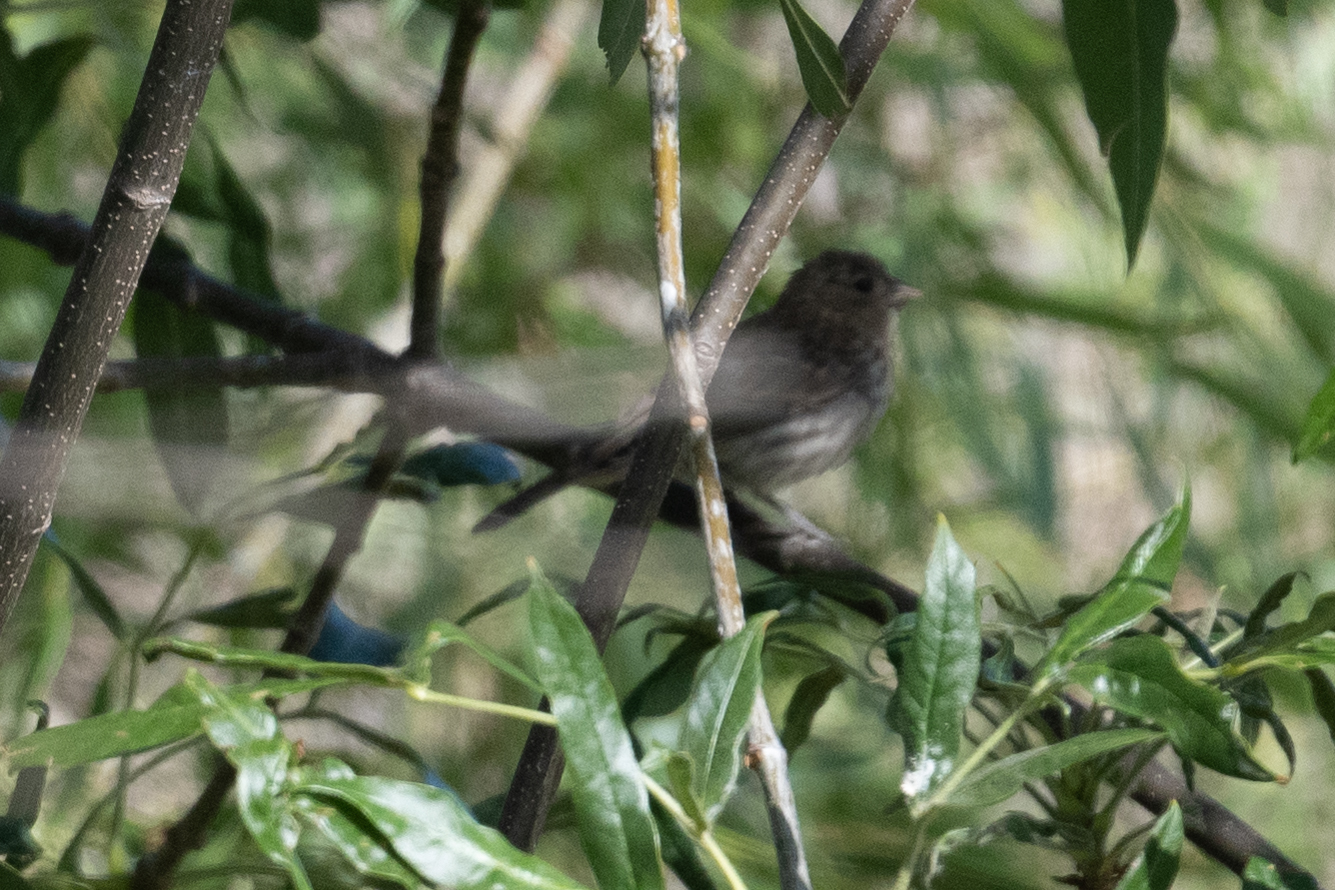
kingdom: Animalia
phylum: Chordata
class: Aves
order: Passeriformes
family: Fringillidae
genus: Haemorhous
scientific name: Haemorhous mexicanus
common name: House finch
